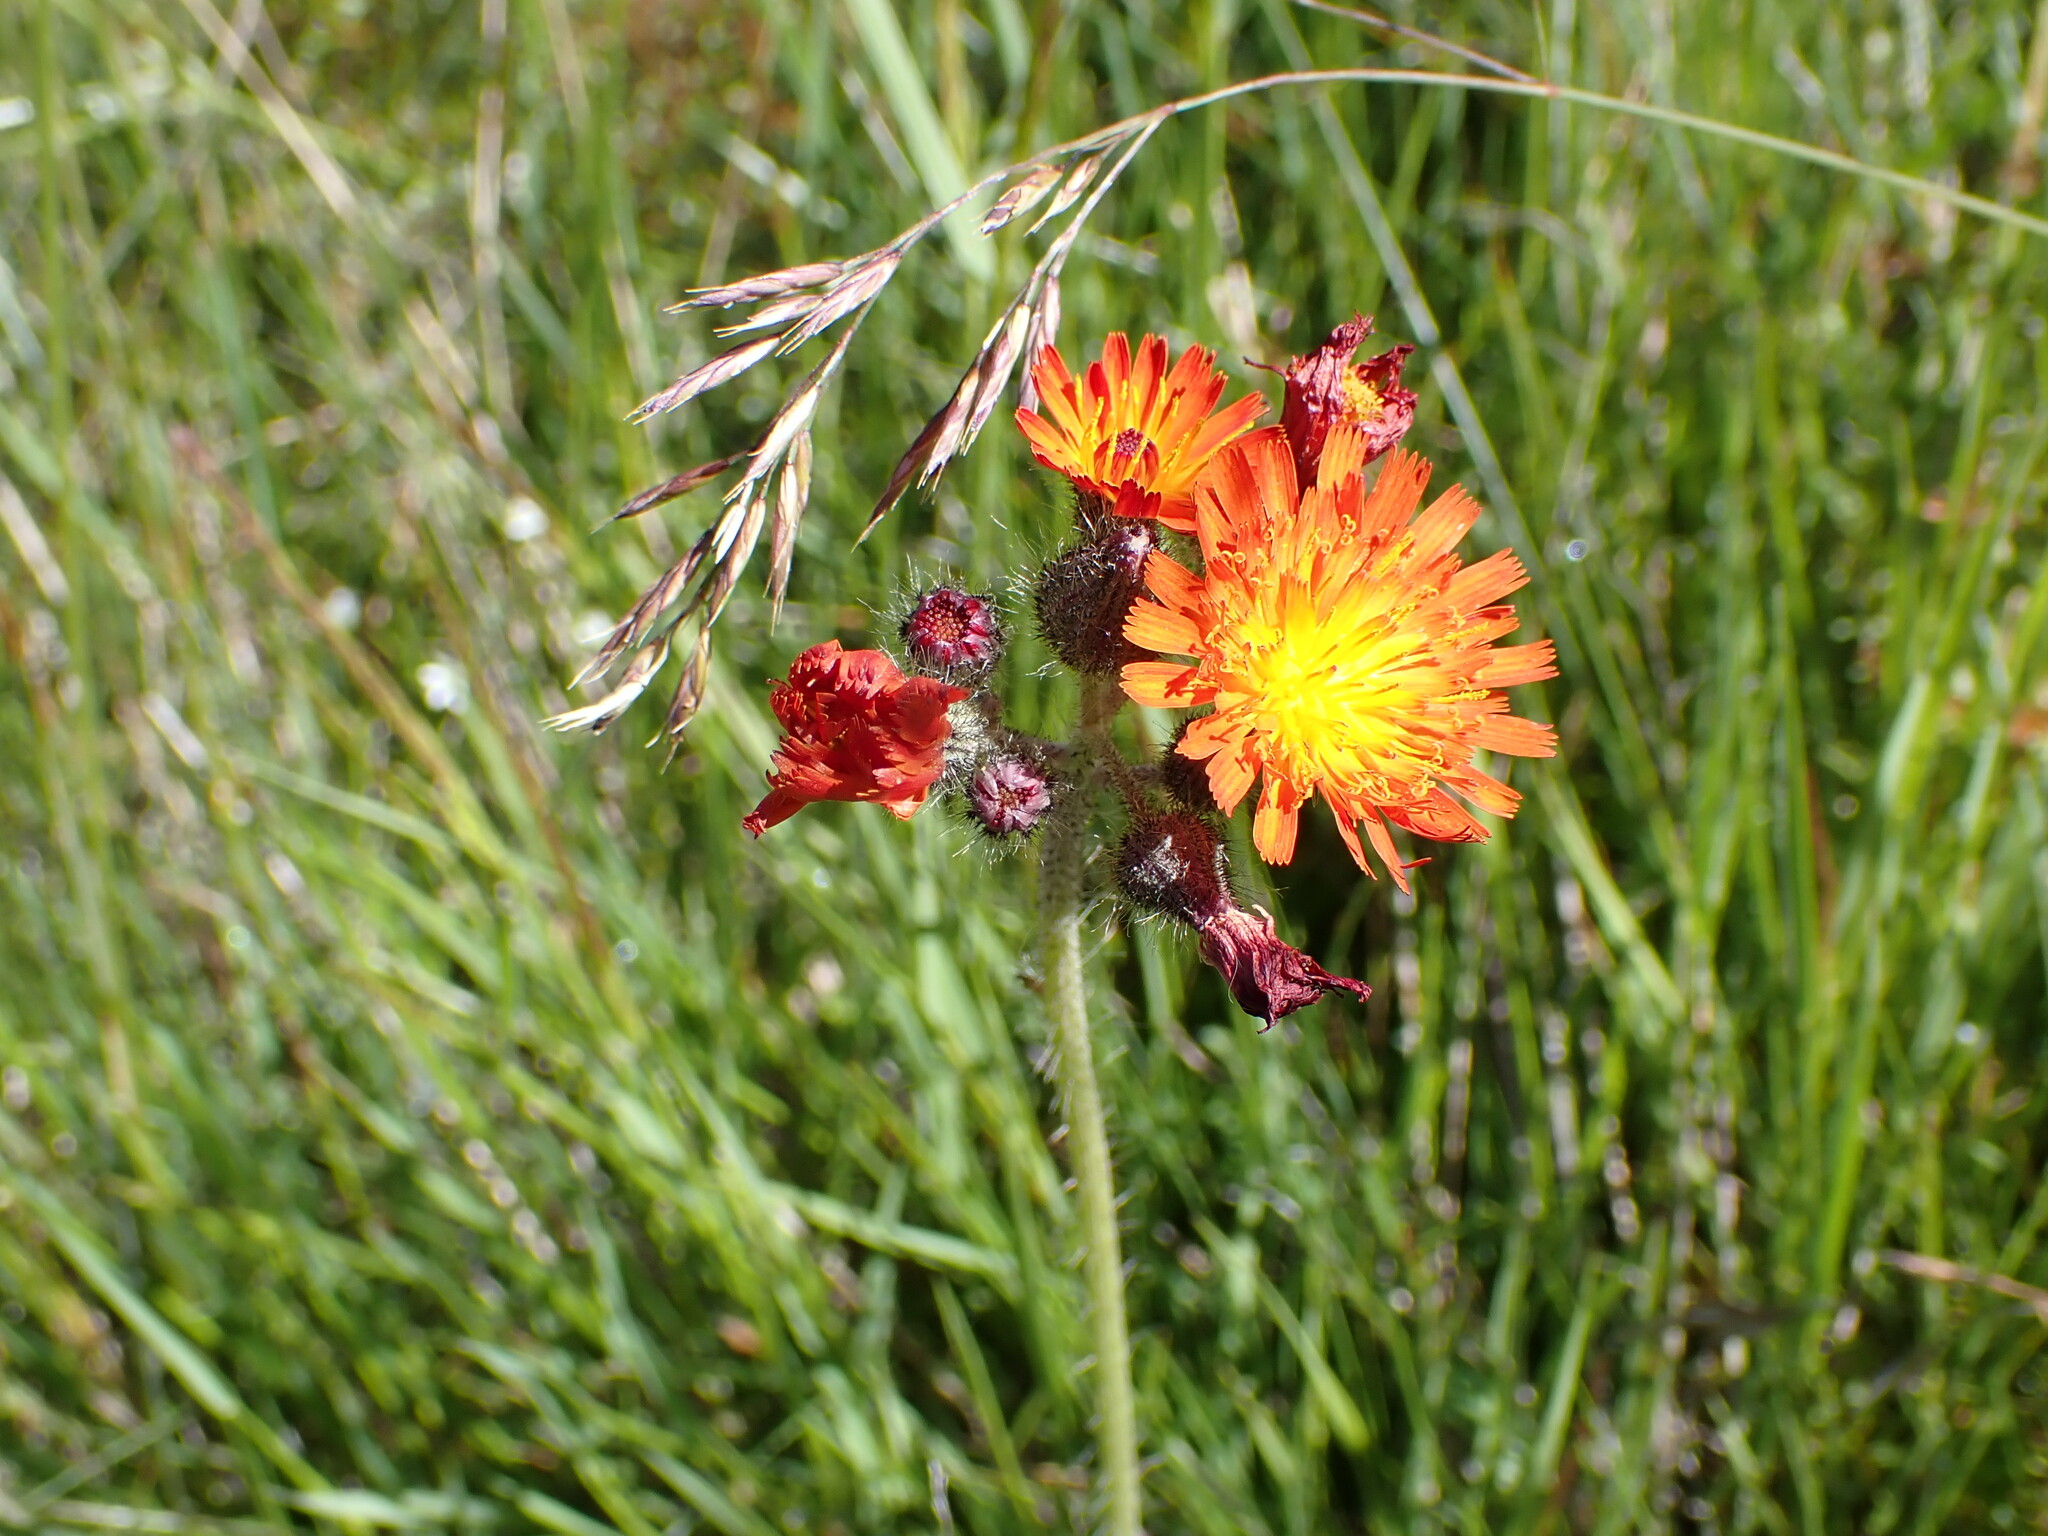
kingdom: Plantae
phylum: Tracheophyta
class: Magnoliopsida
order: Asterales
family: Asteraceae
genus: Pilosella
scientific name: Pilosella aurantiaca
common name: Fox-and-cubs
